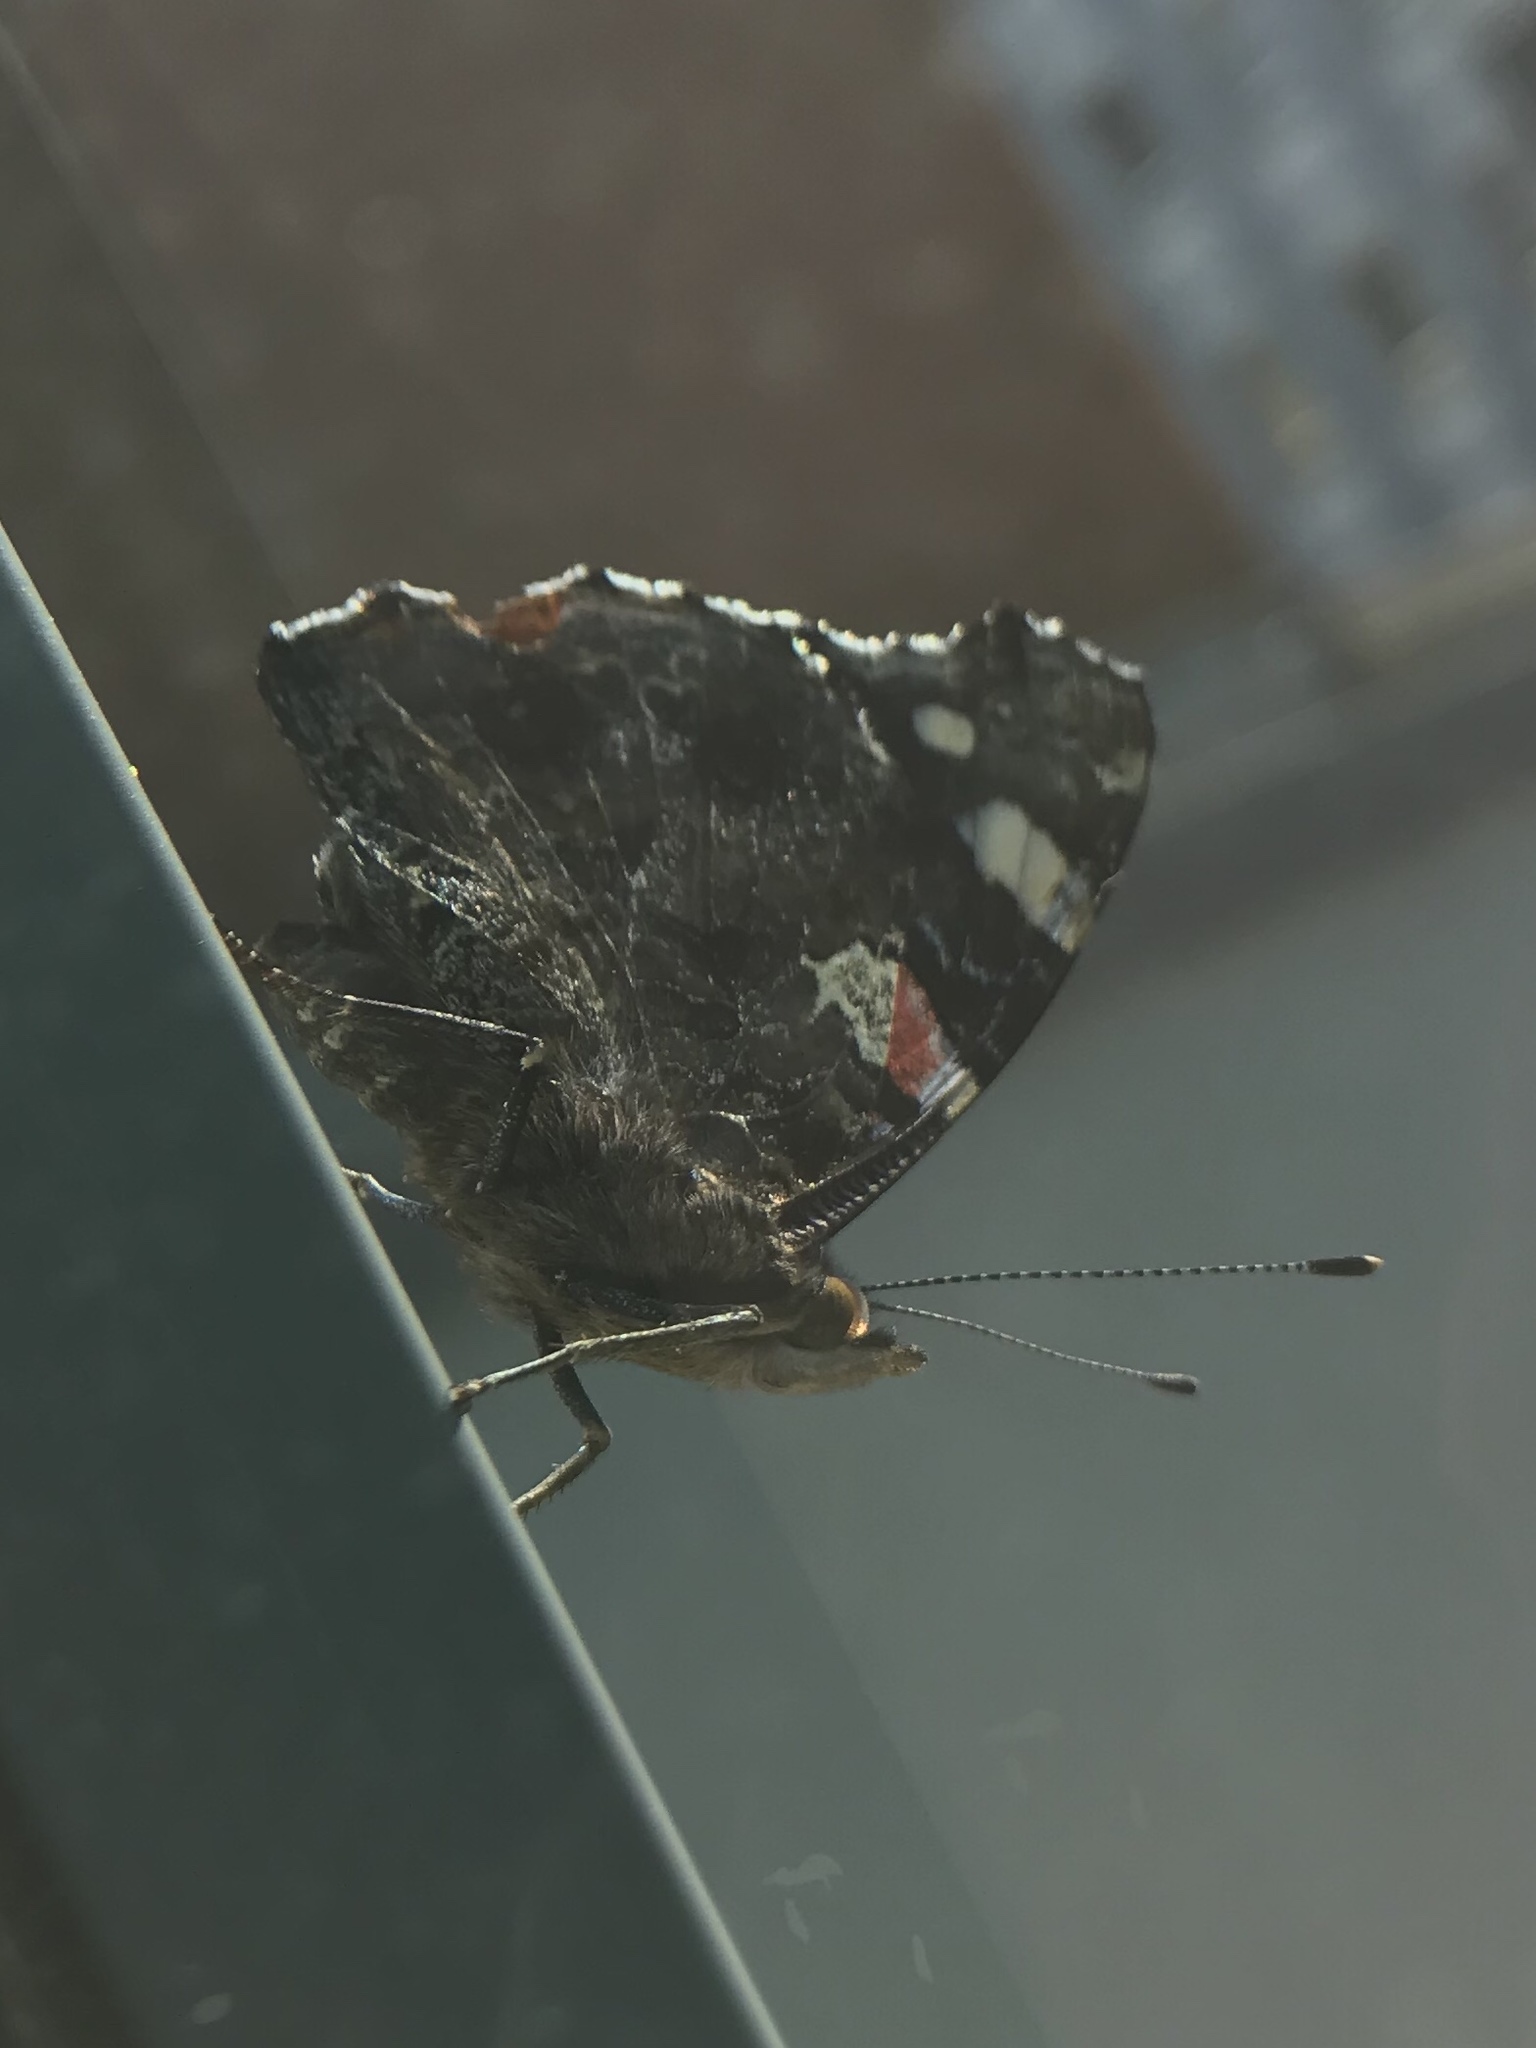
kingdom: Animalia
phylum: Arthropoda
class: Insecta
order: Lepidoptera
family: Nymphalidae
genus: Vanessa
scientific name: Vanessa atalanta
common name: Red admiral
